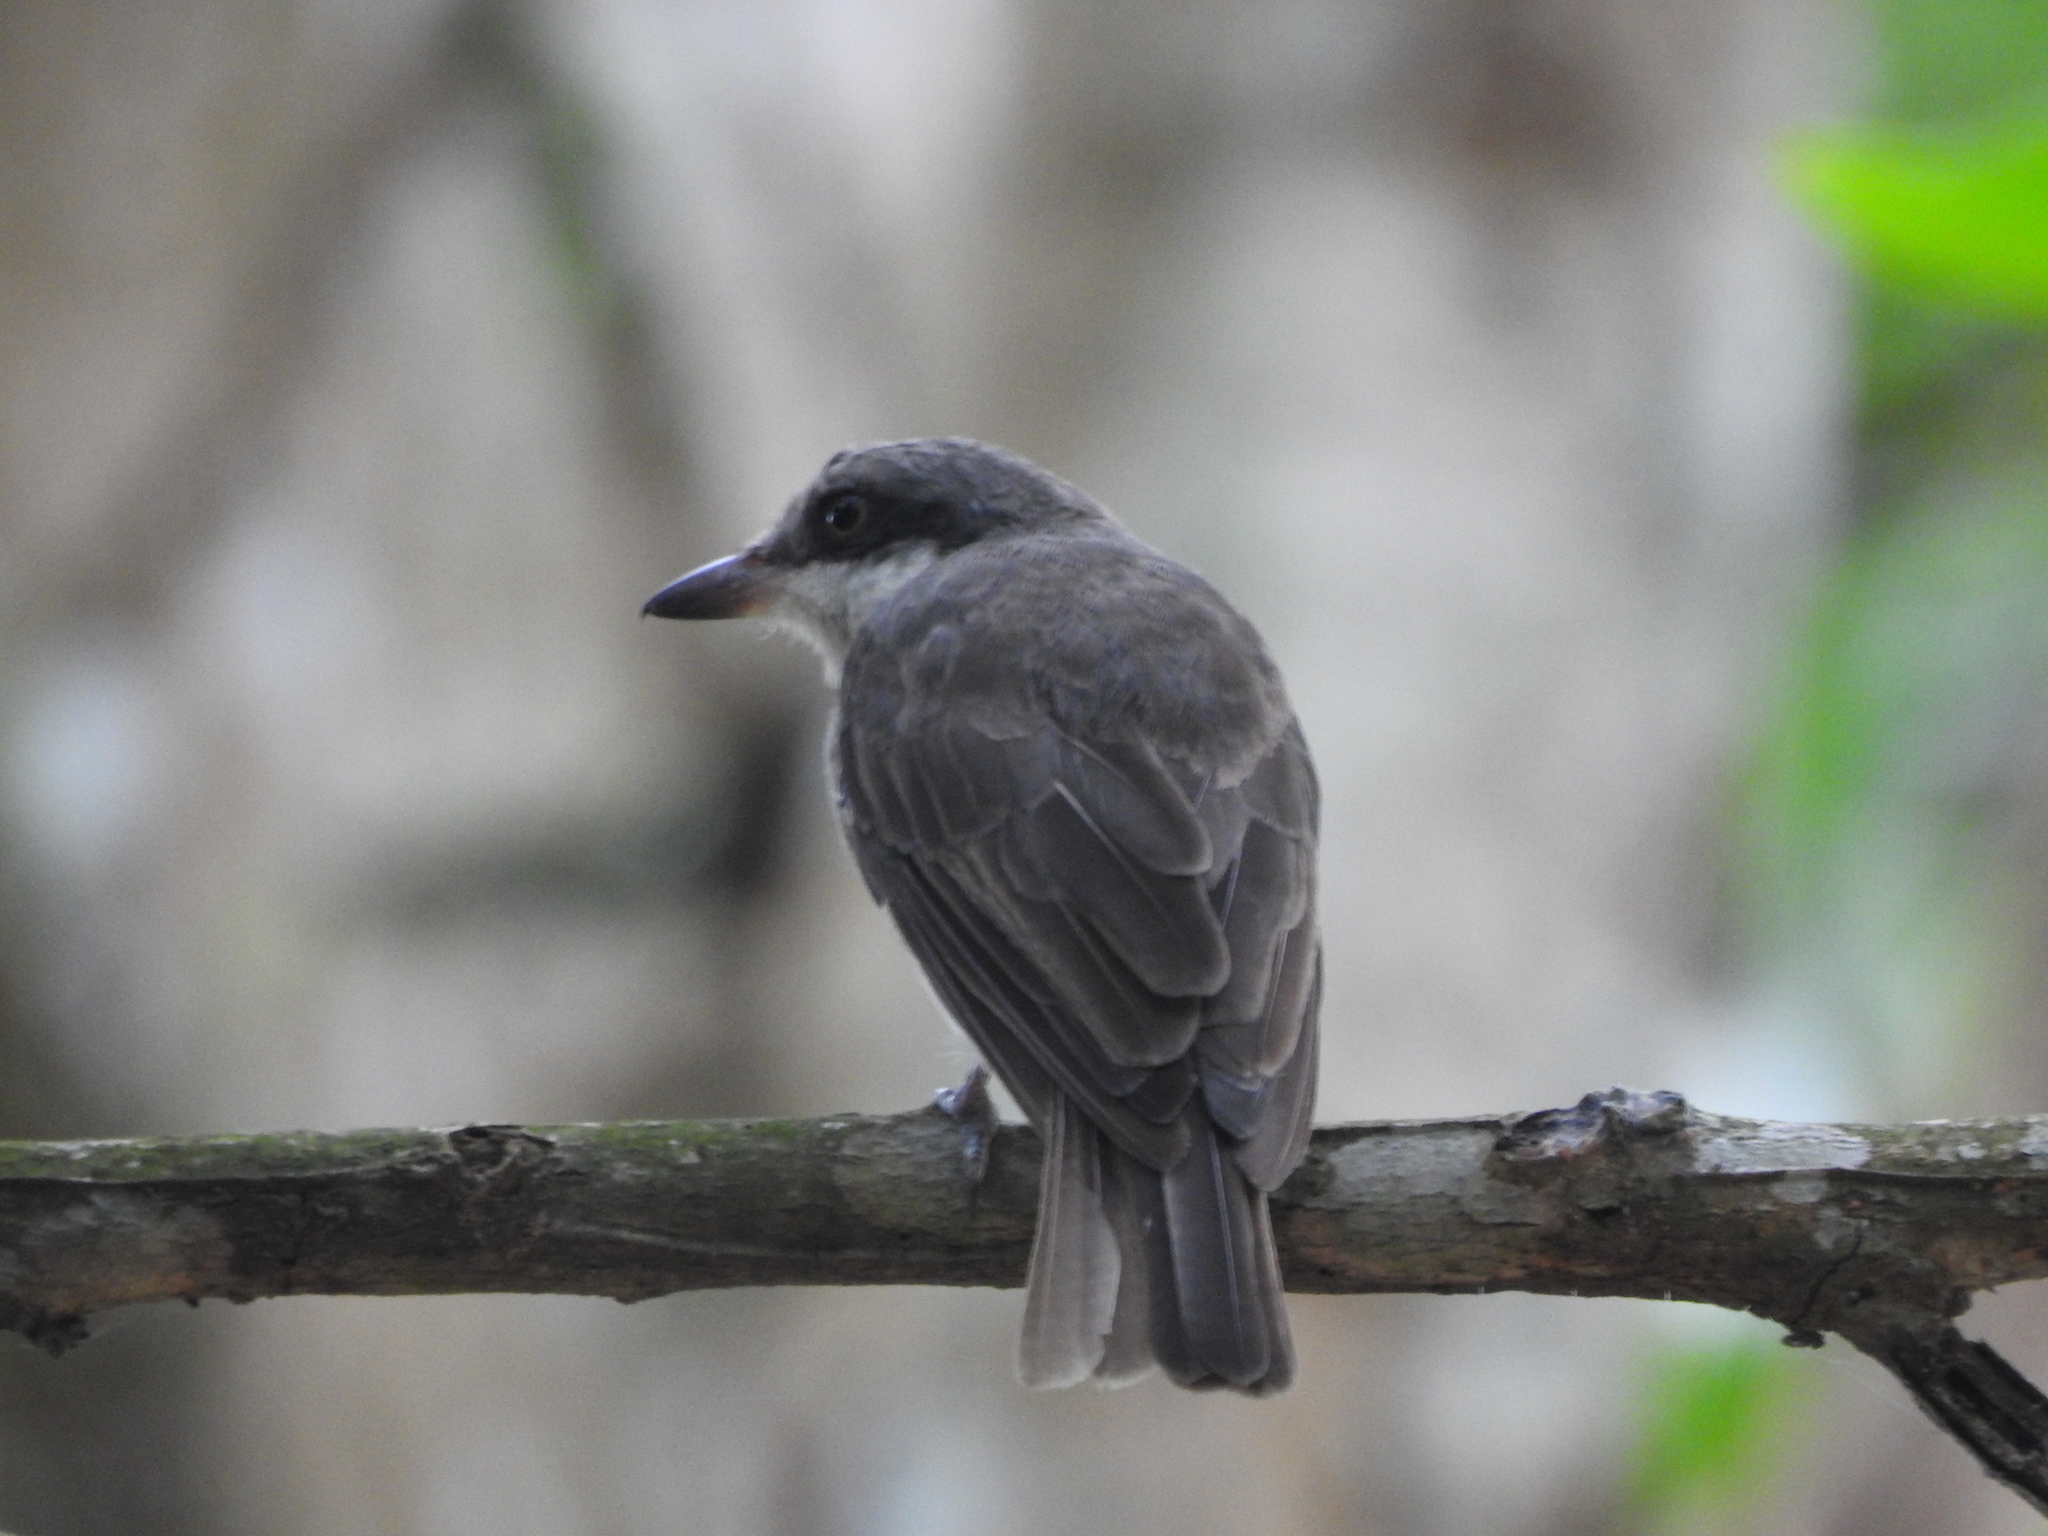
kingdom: Animalia
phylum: Chordata
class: Aves
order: Passeriformes
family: Tephrodornithidae
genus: Tephrodornis
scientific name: Tephrodornis virgatus
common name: Large woodshrike
